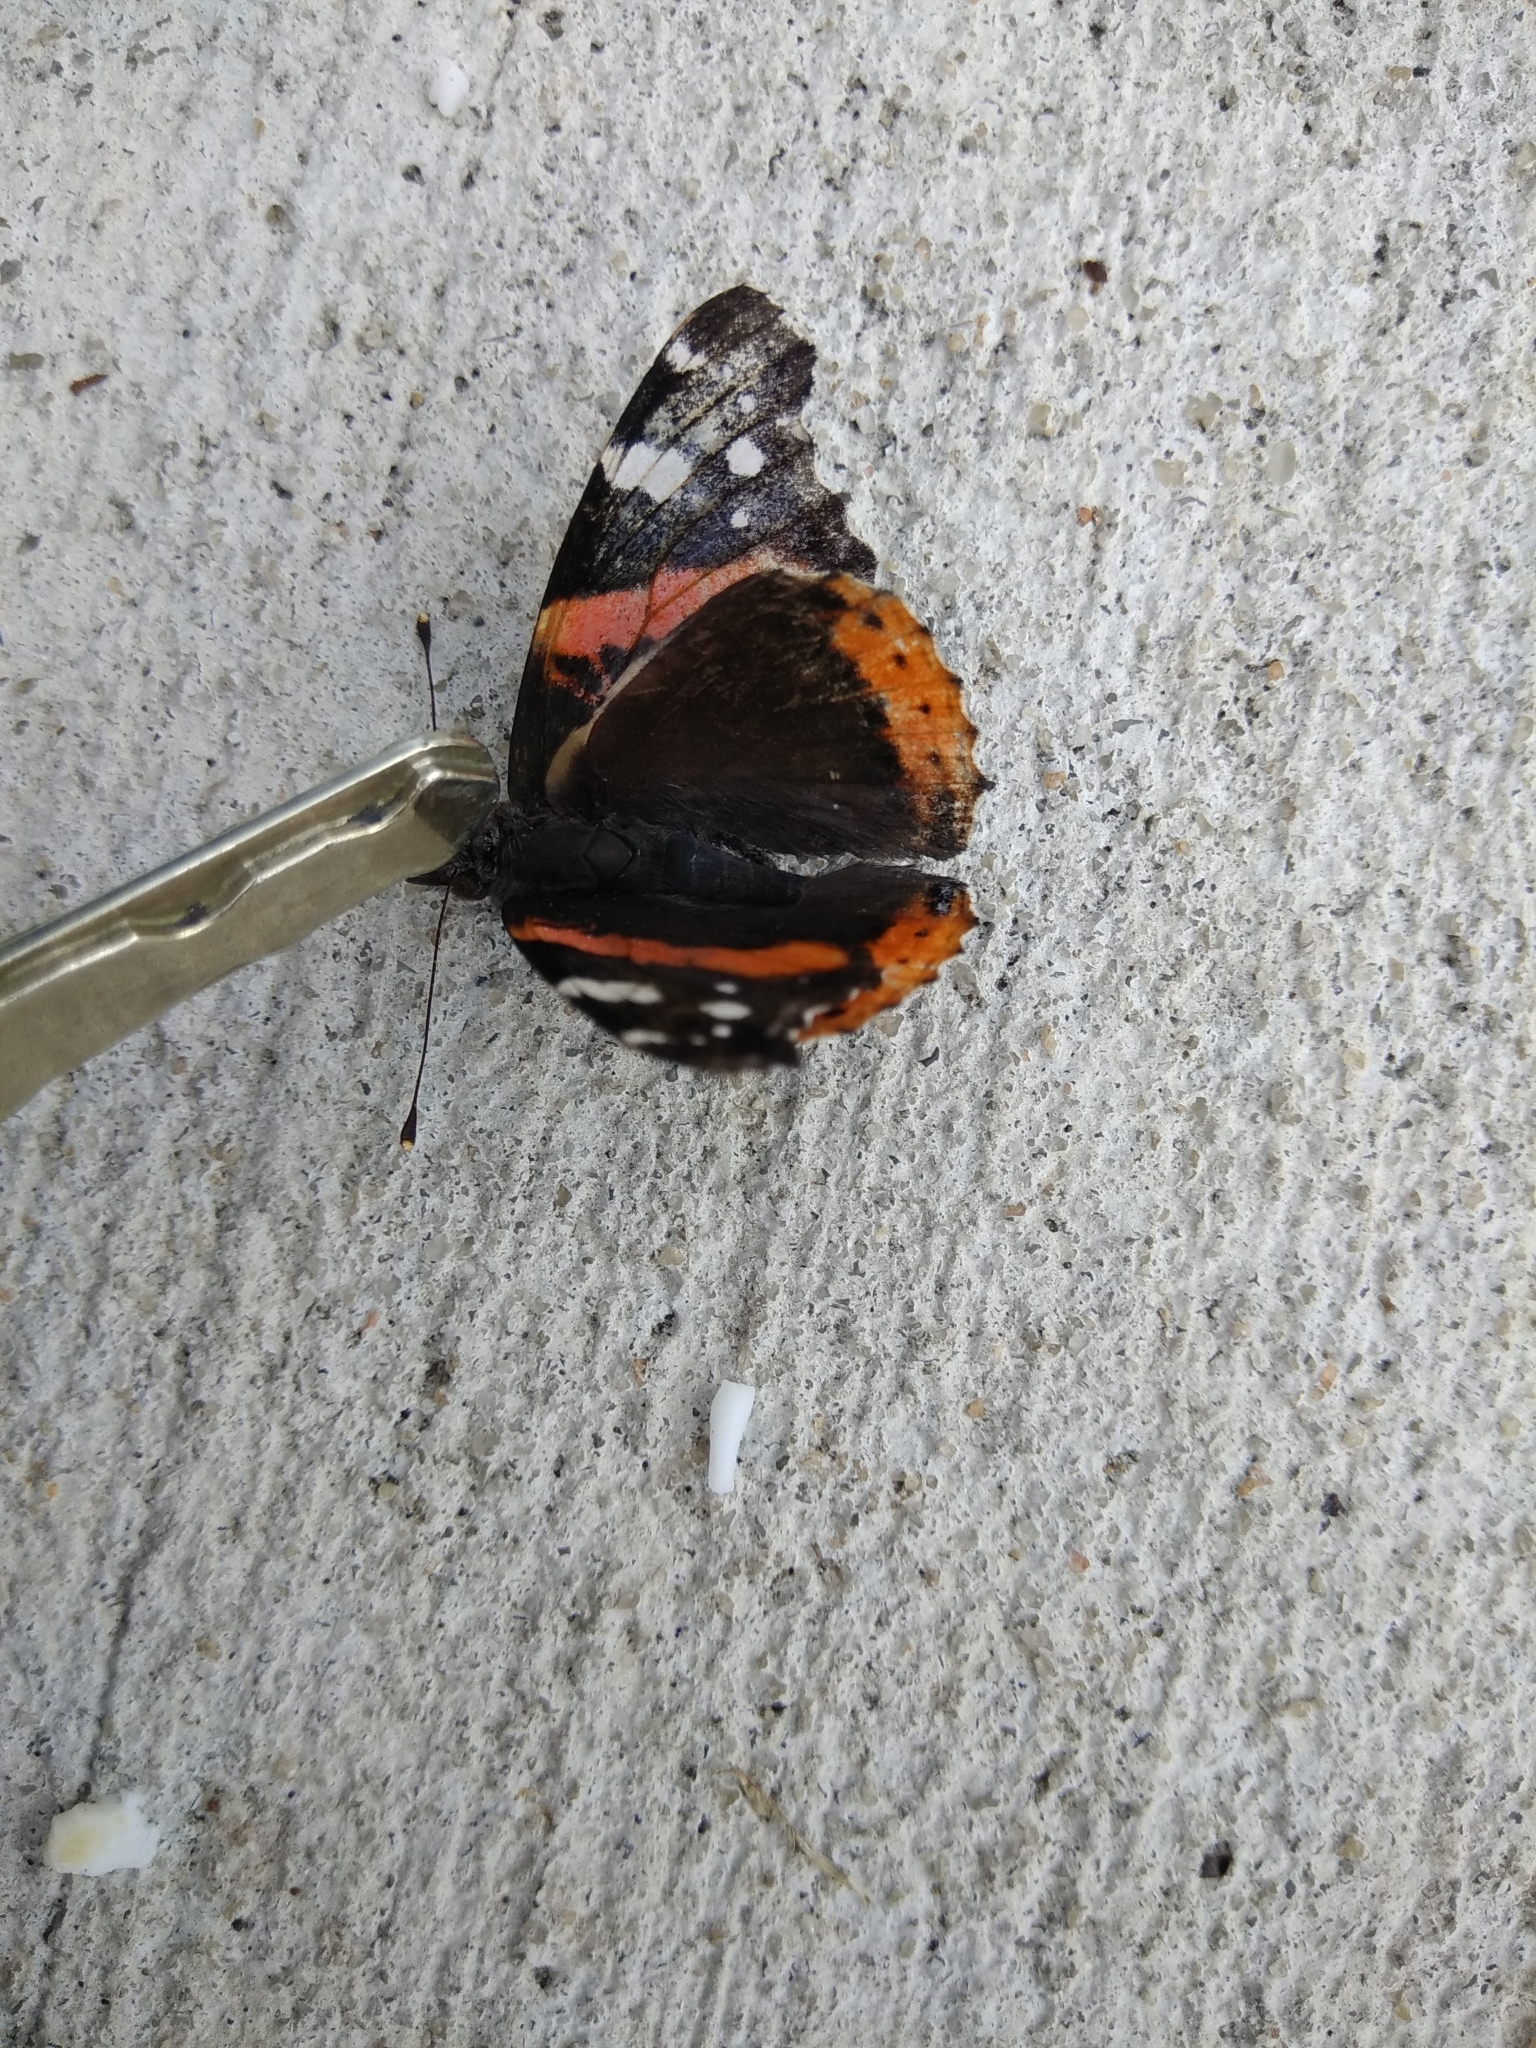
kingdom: Animalia
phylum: Arthropoda
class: Insecta
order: Lepidoptera
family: Nymphalidae
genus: Vanessa
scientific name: Vanessa atalanta
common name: Red admiral
